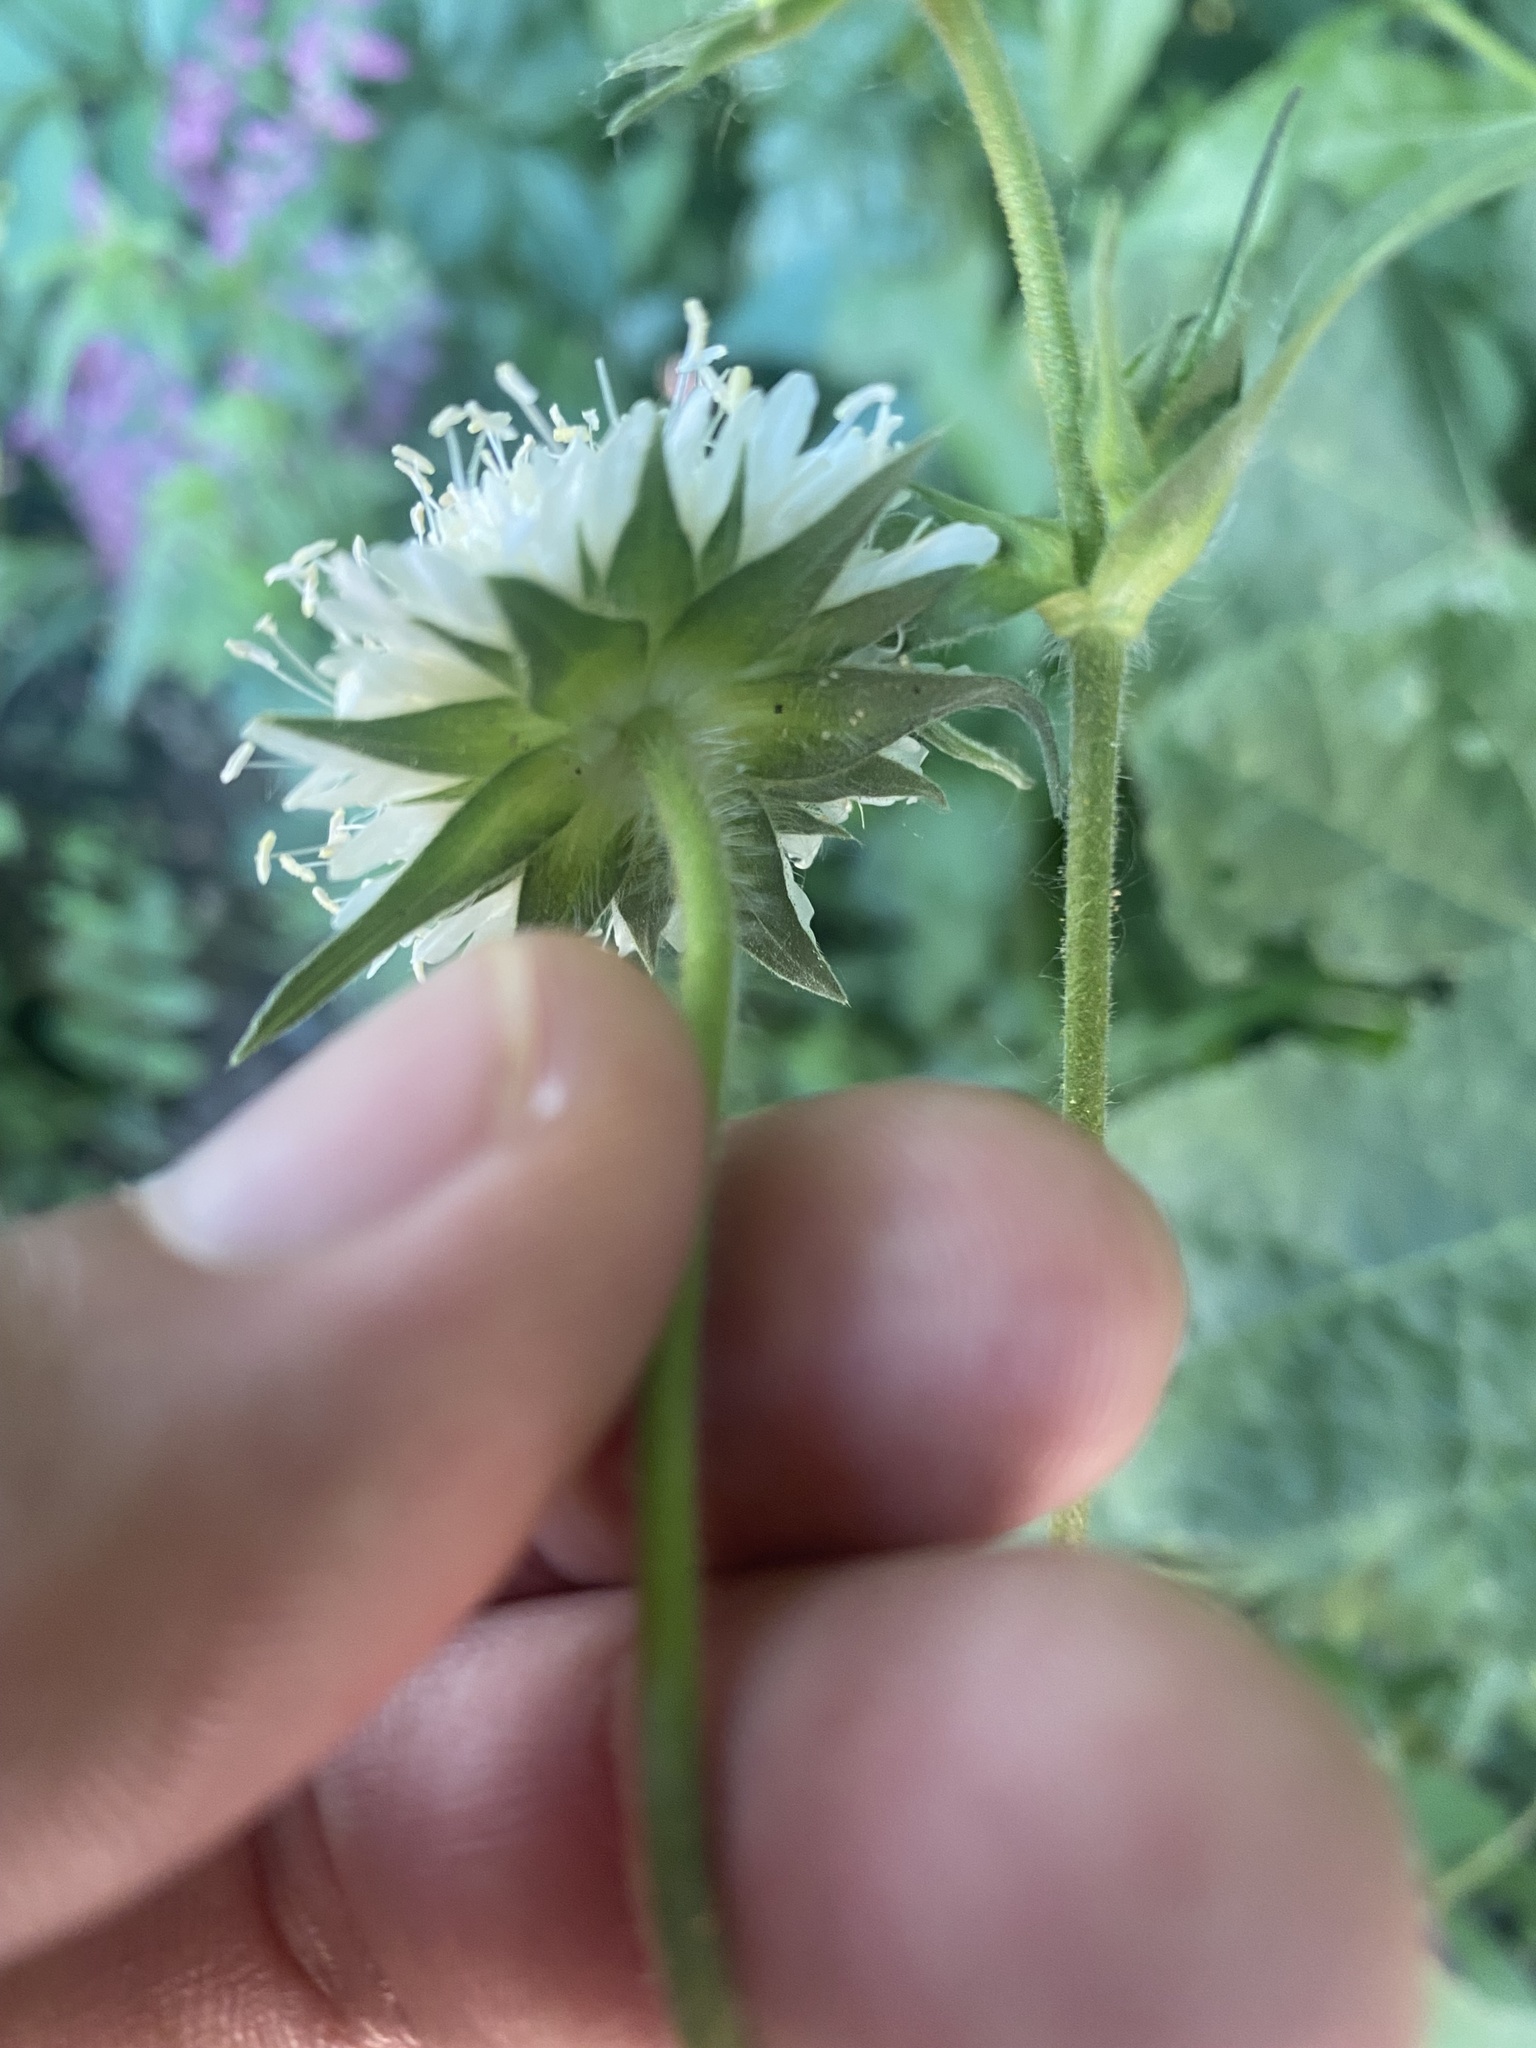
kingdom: Plantae
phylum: Tracheophyta
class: Magnoliopsida
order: Dipsacales
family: Caprifoliaceae
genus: Knautia
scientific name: Knautia involucrata
